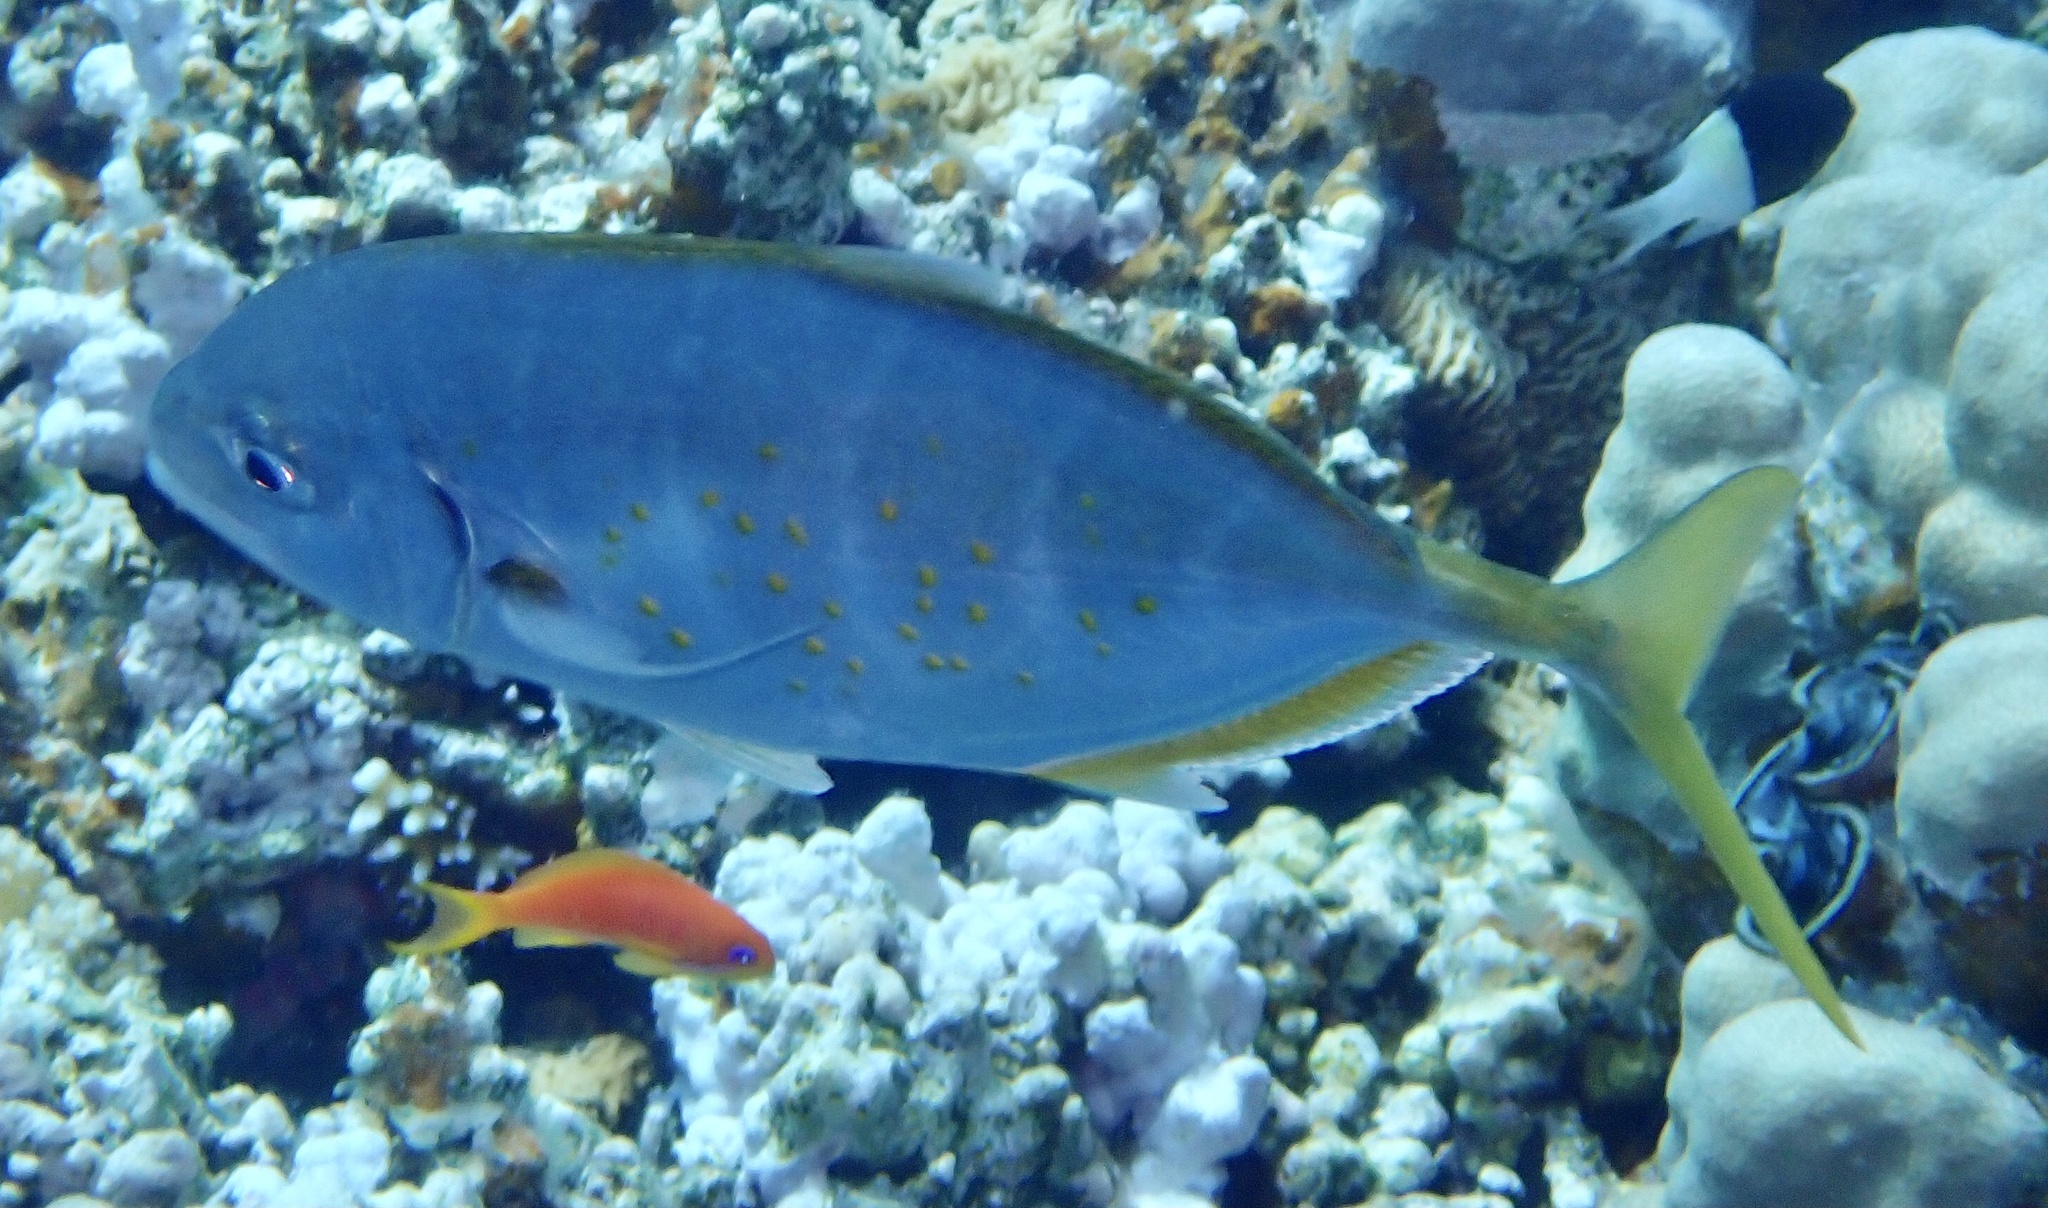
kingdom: Animalia
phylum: Chordata
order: Perciformes
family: Carangidae
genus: Flavocaranx
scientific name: Flavocaranx bajad
